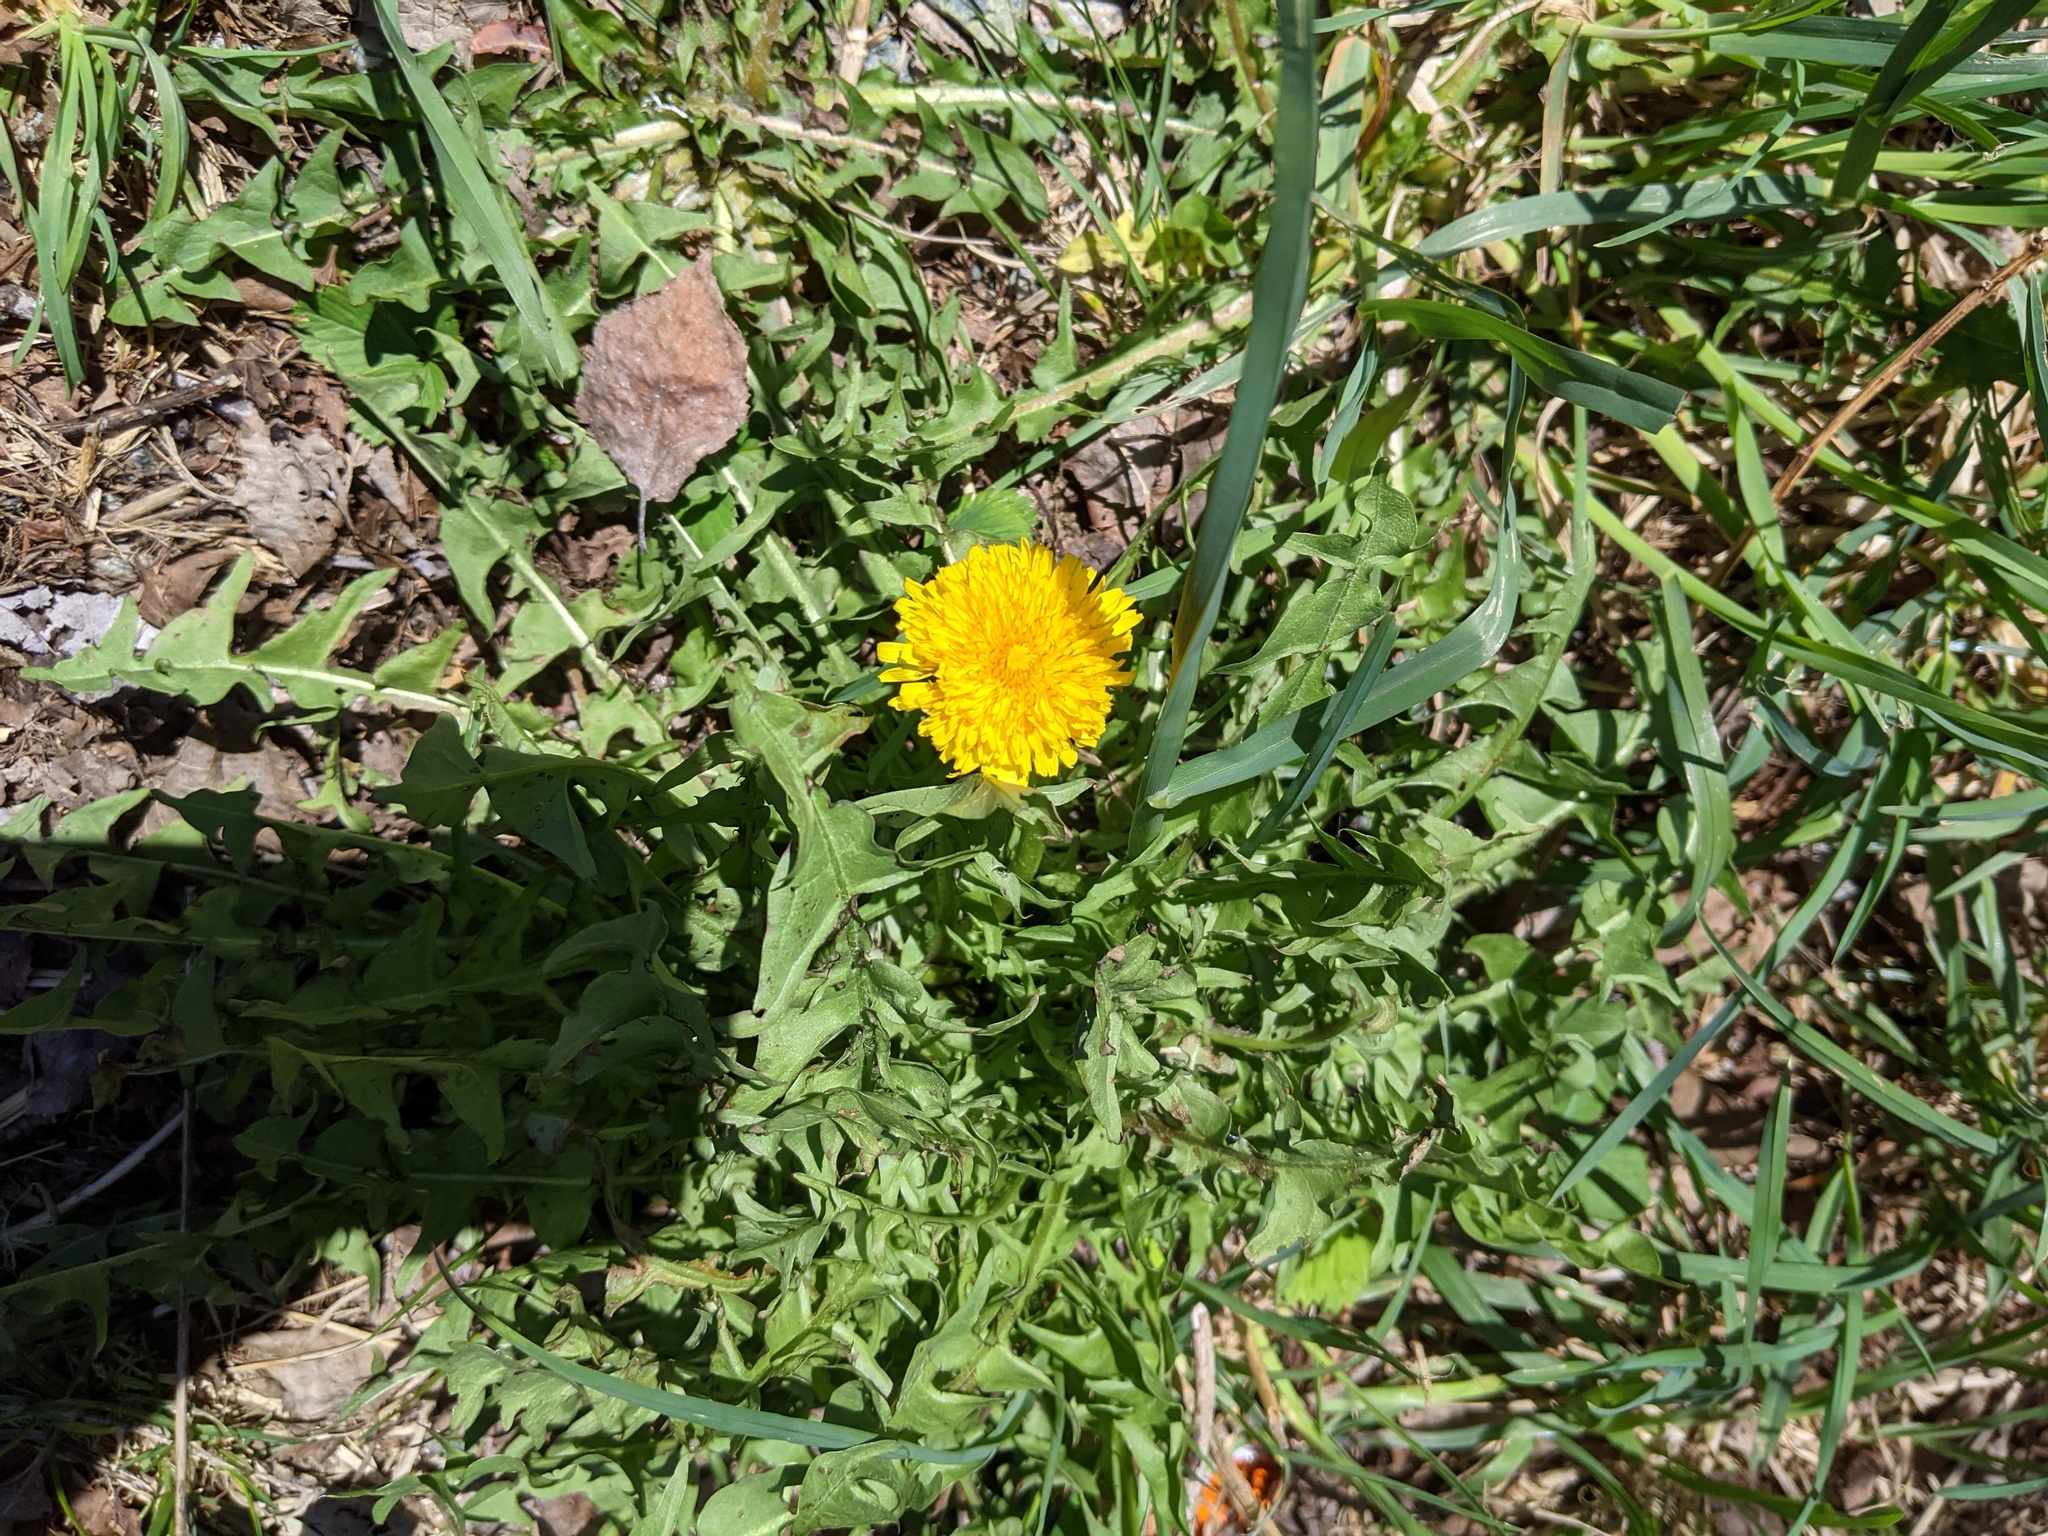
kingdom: Plantae
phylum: Tracheophyta
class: Magnoliopsida
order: Asterales
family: Asteraceae
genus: Taraxacum
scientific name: Taraxacum officinale
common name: Common dandelion
